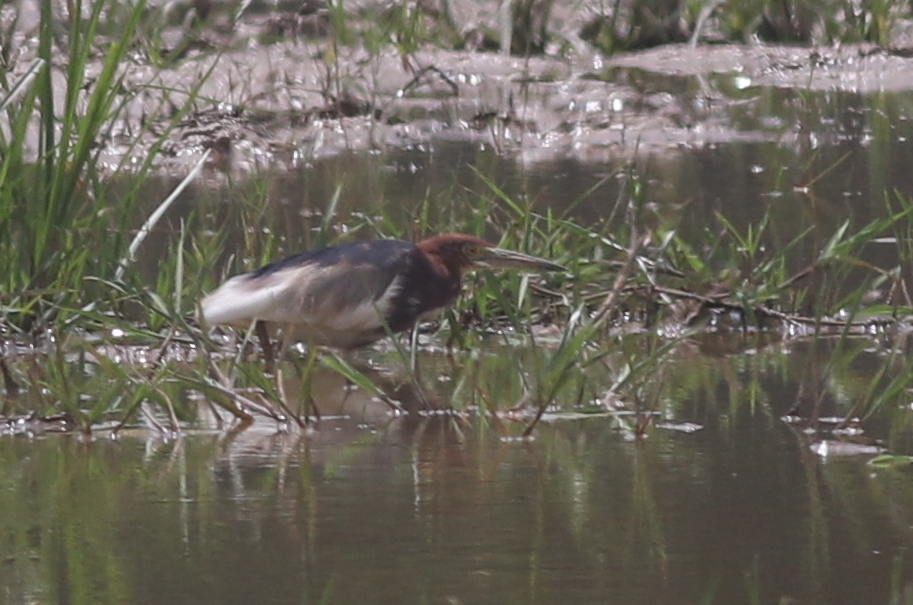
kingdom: Animalia
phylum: Chordata
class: Aves
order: Pelecaniformes
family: Ardeidae
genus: Ardeola
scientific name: Ardeola bacchus
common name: Chinese pond heron
